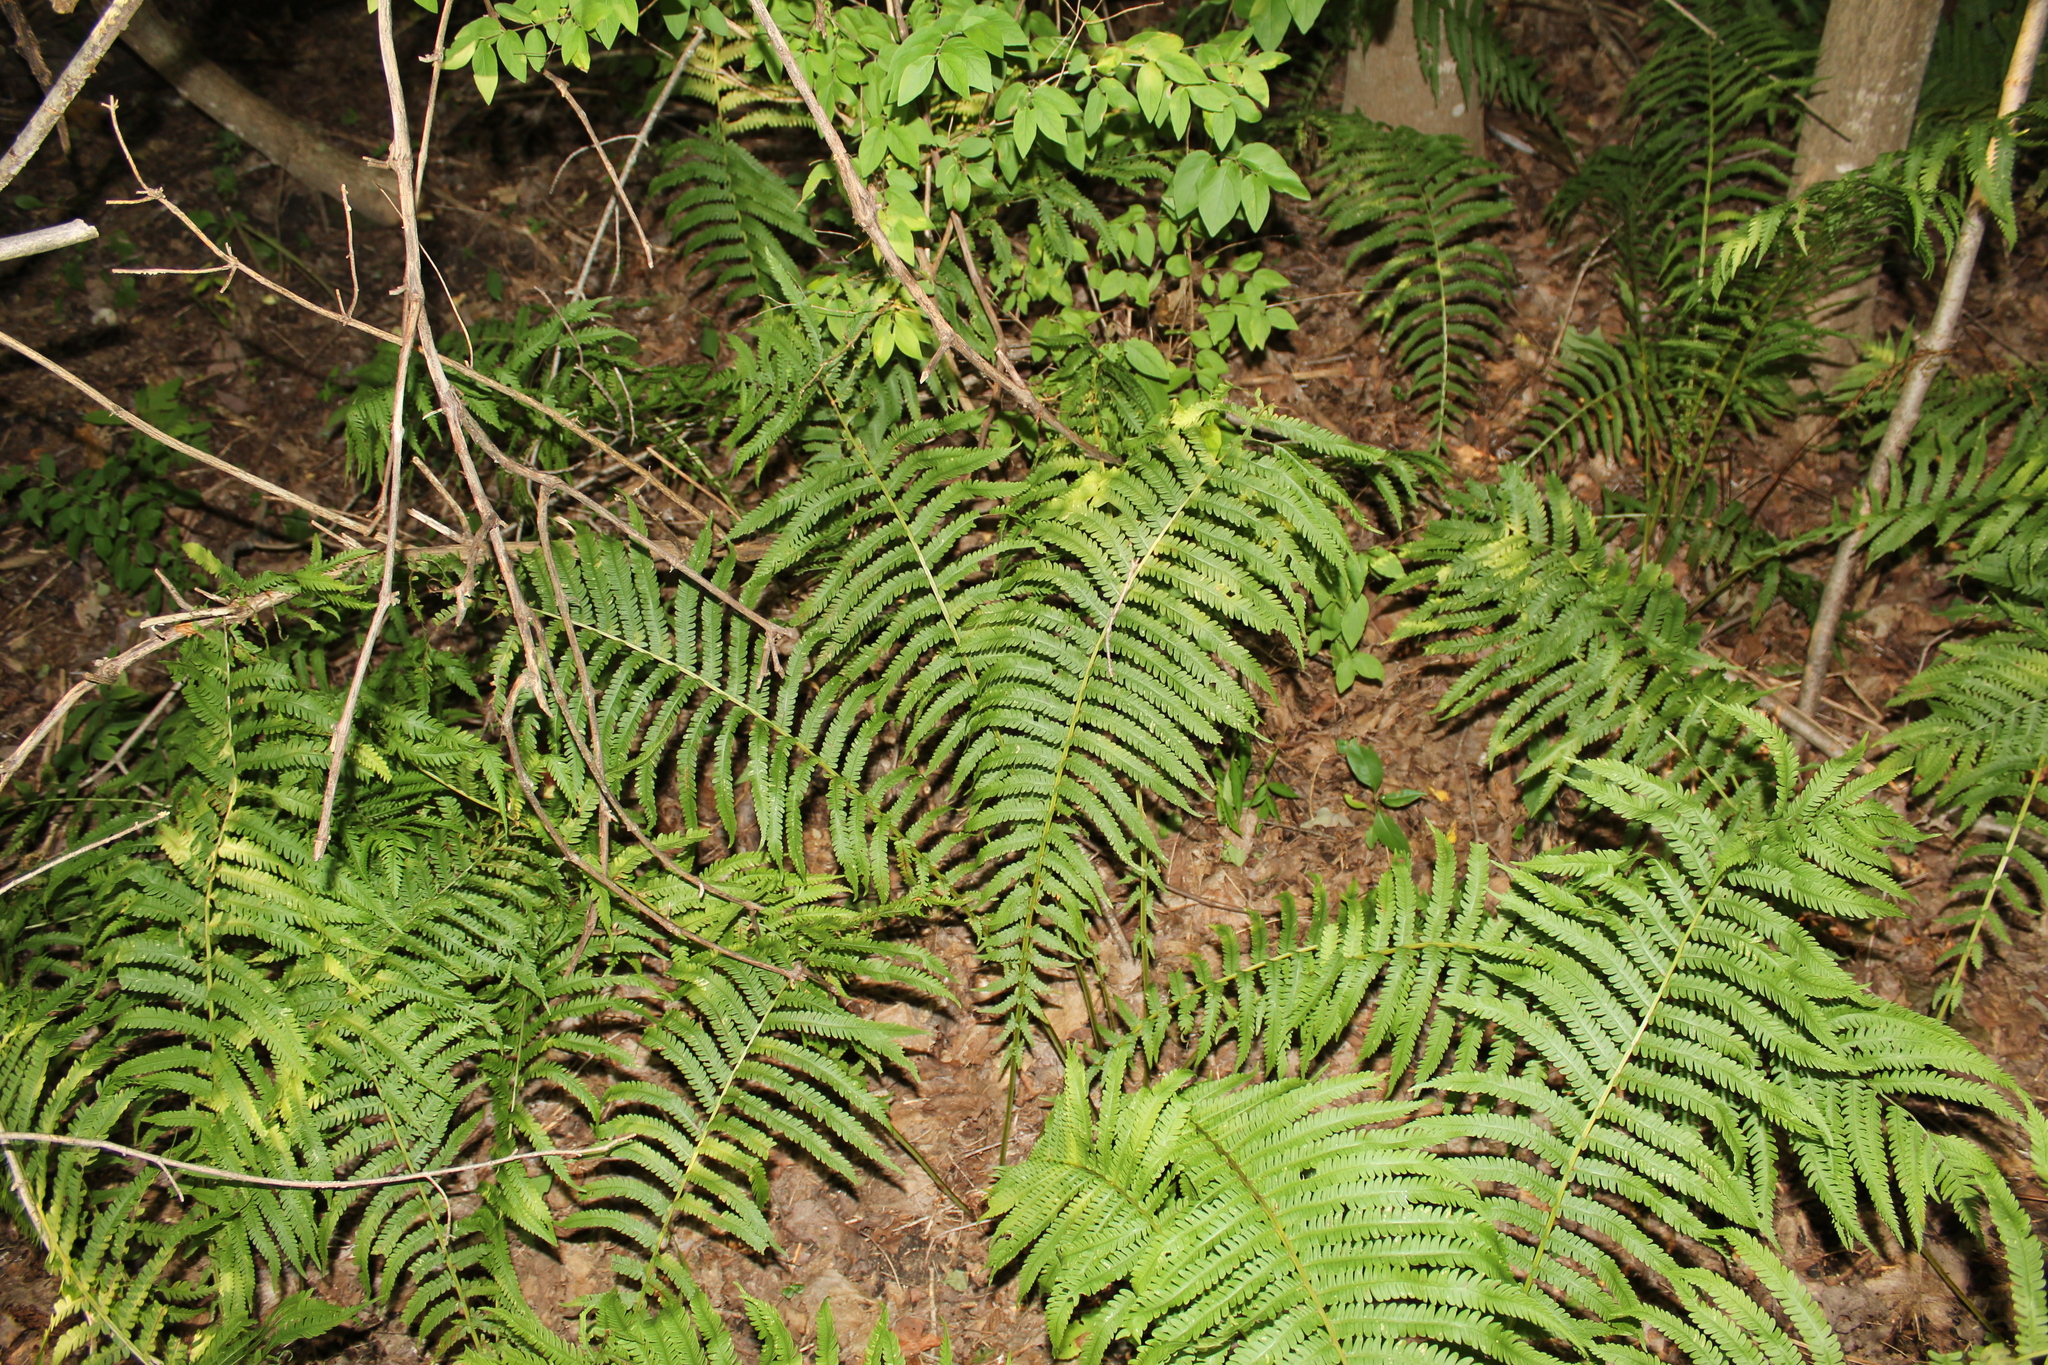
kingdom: Plantae
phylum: Tracheophyta
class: Polypodiopsida
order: Polypodiales
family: Onocleaceae
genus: Matteuccia
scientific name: Matteuccia struthiopteris
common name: Ostrich fern
